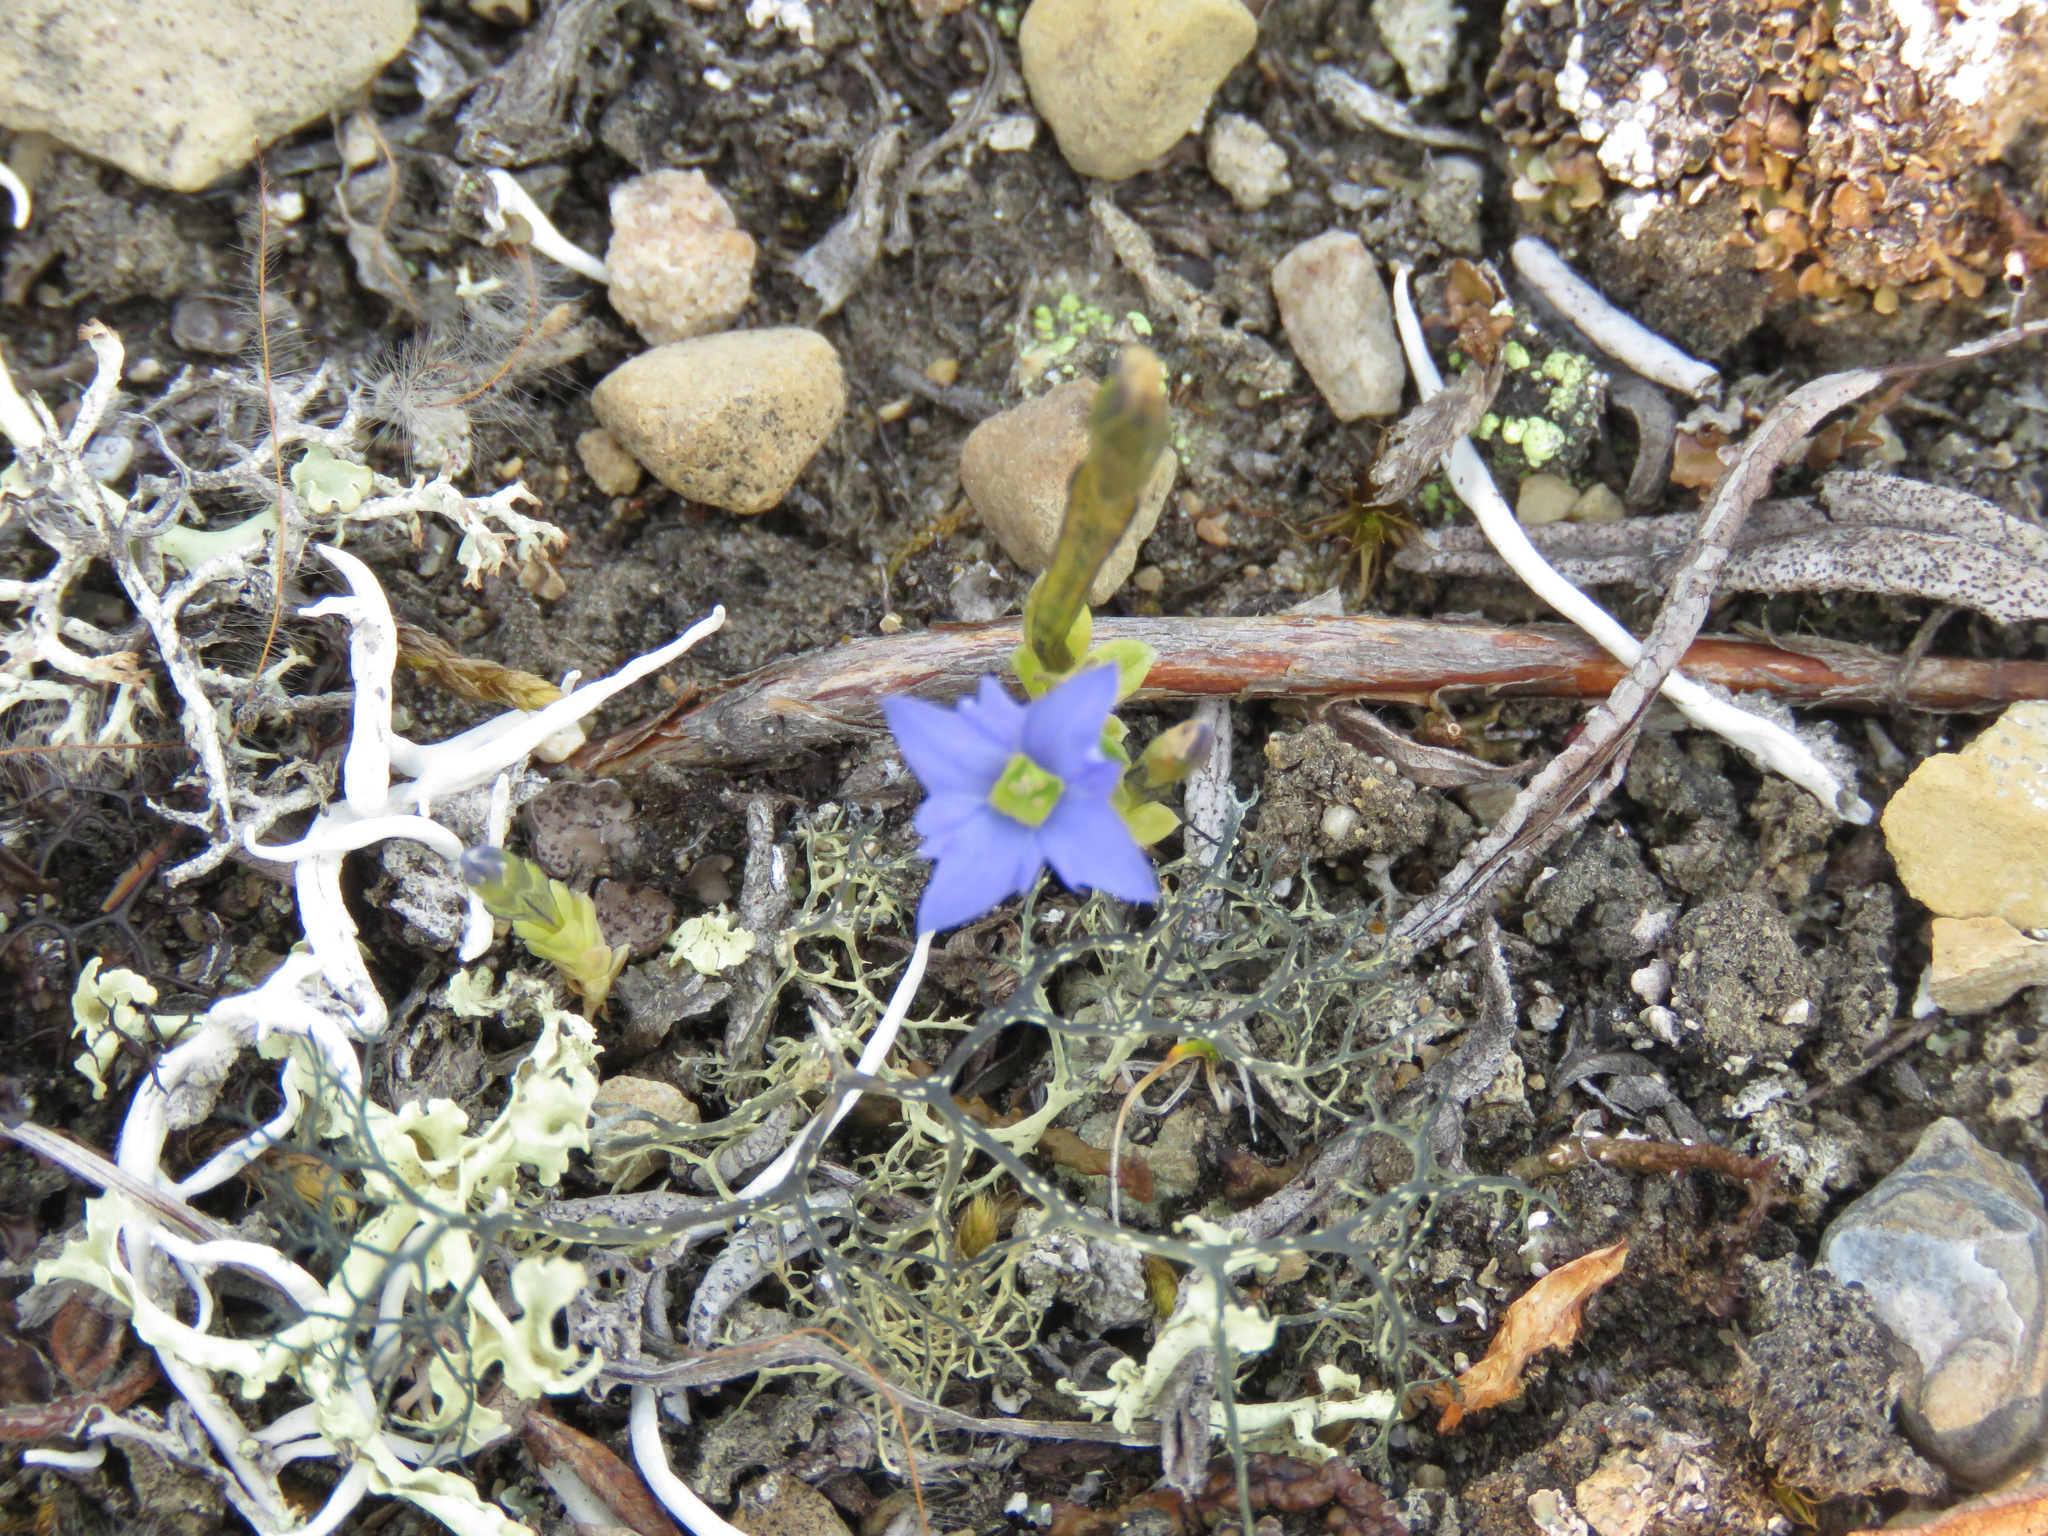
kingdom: Plantae
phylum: Tracheophyta
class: Magnoliopsida
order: Gentianales
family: Gentianaceae
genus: Gentiana
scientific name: Gentiana prostrata
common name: Moss gentian
